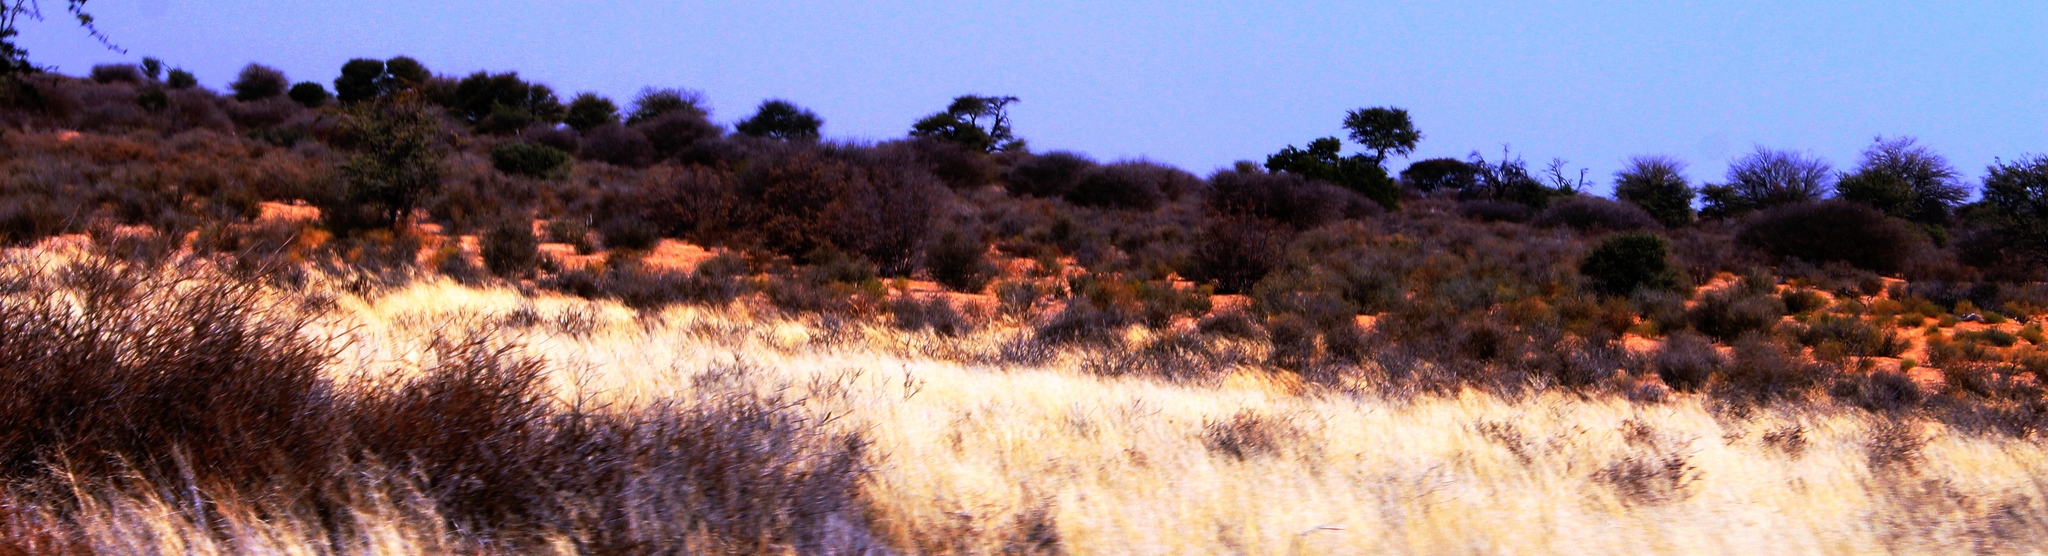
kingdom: Plantae
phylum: Tracheophyta
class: Magnoliopsida
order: Fabales
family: Fabaceae
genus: Senegalia
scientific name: Senegalia mellifera
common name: Hookthorn
